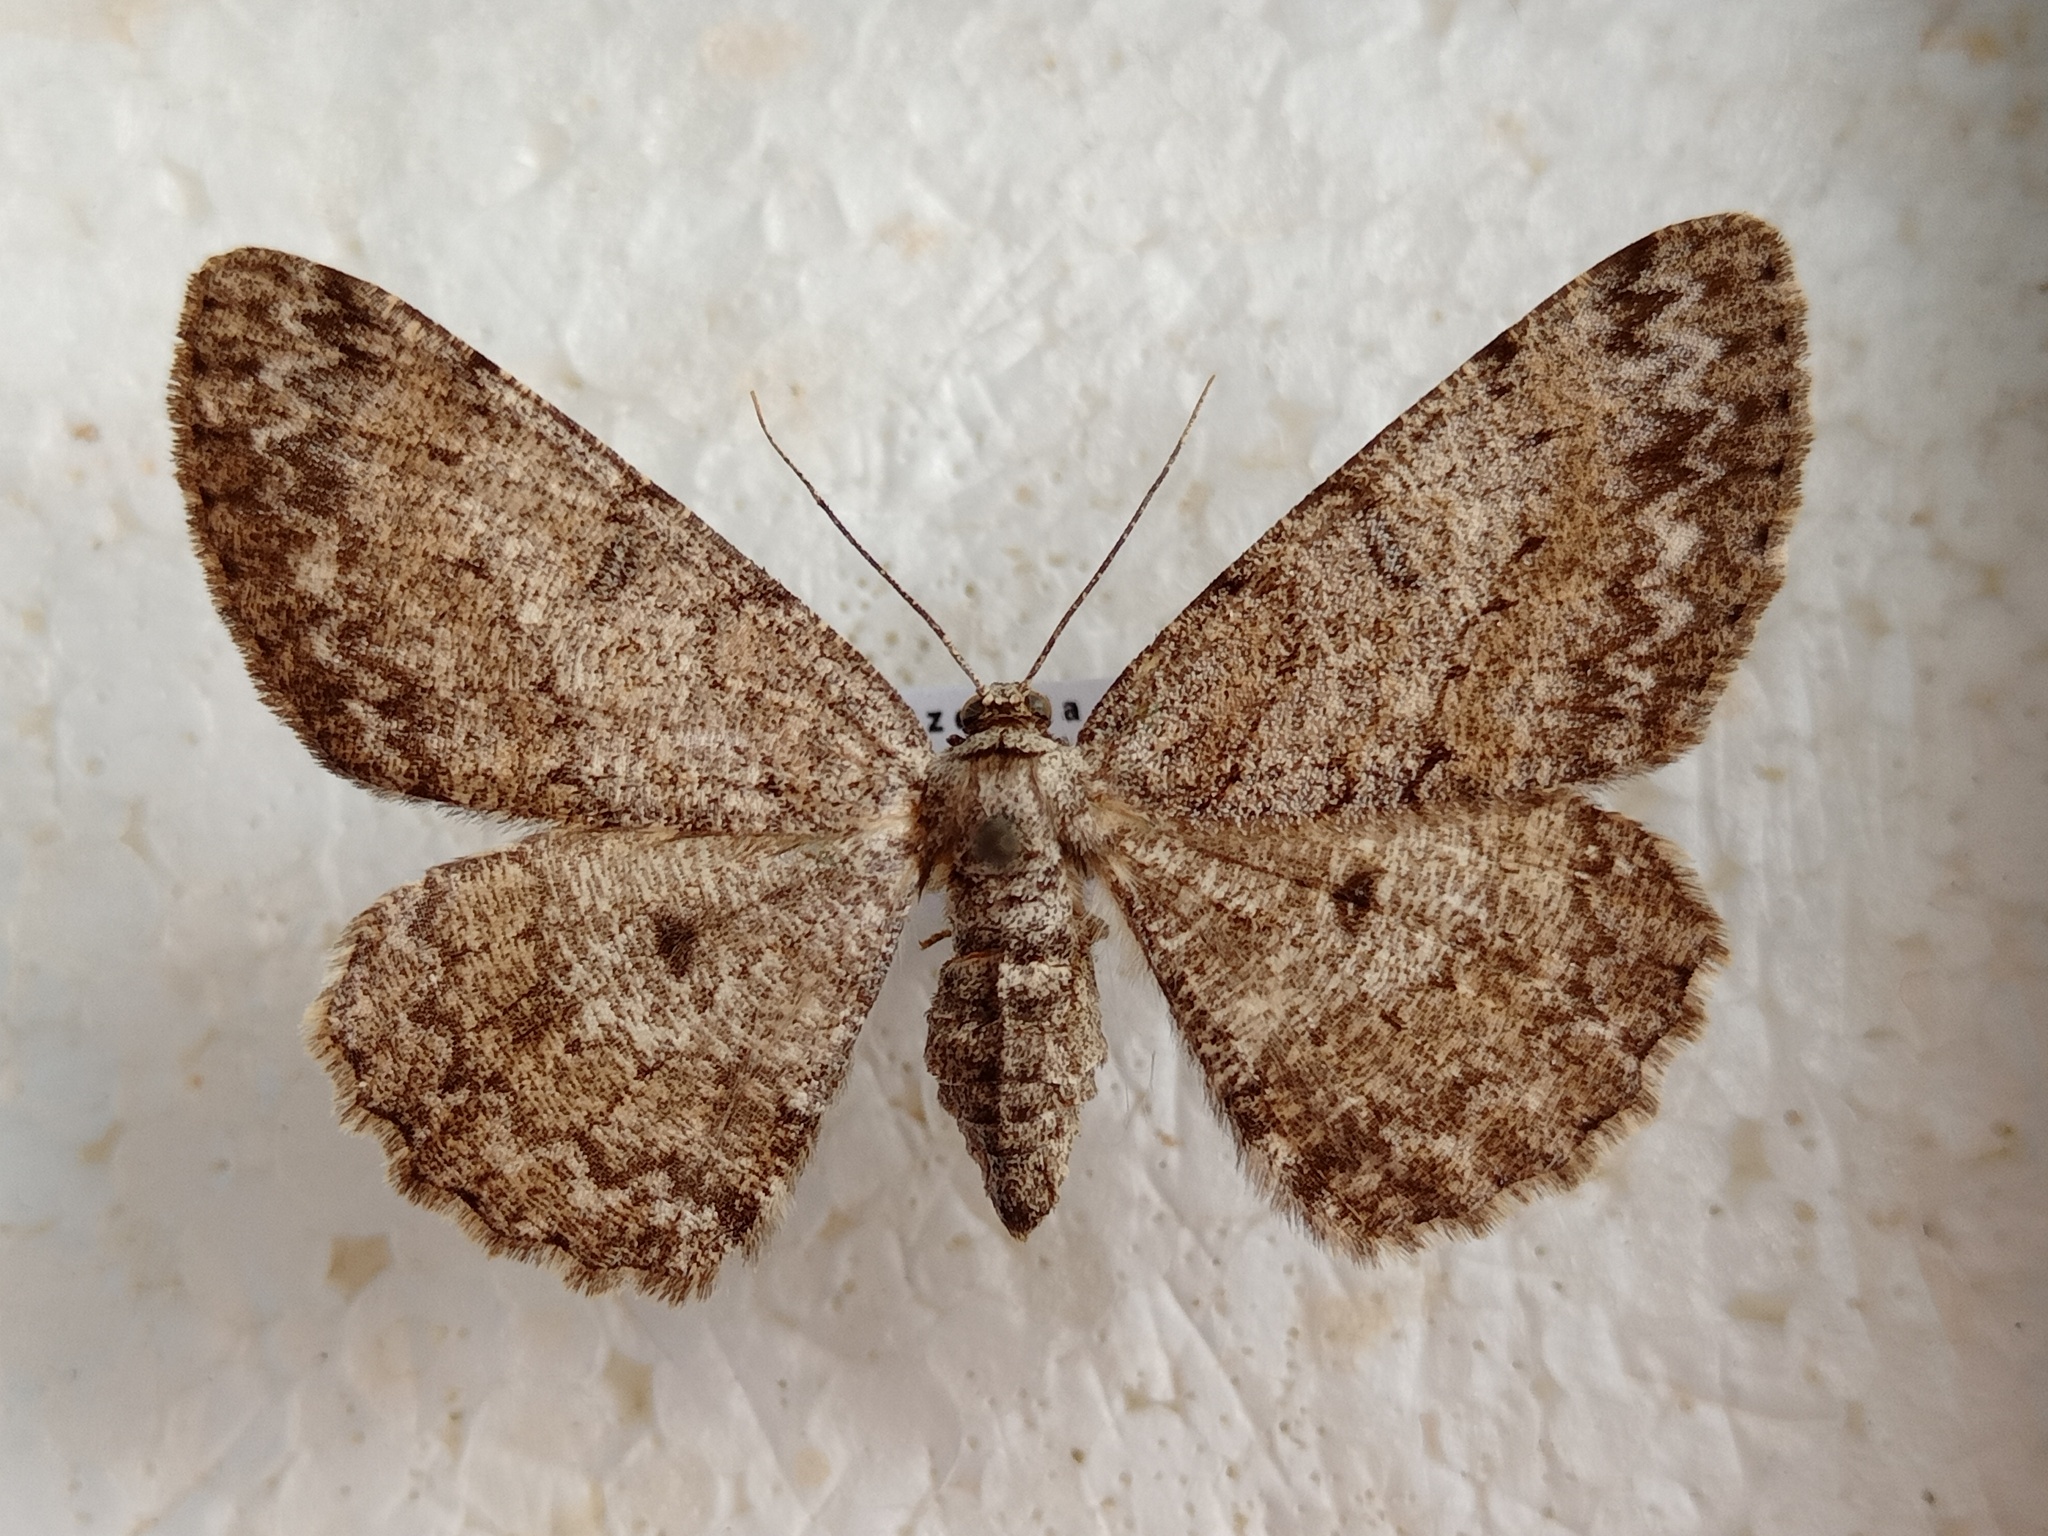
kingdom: Animalia
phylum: Arthropoda
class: Insecta
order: Lepidoptera
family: Geometridae
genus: Hypomecis
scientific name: Hypomecis punctinalis
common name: Pale oak beauty
